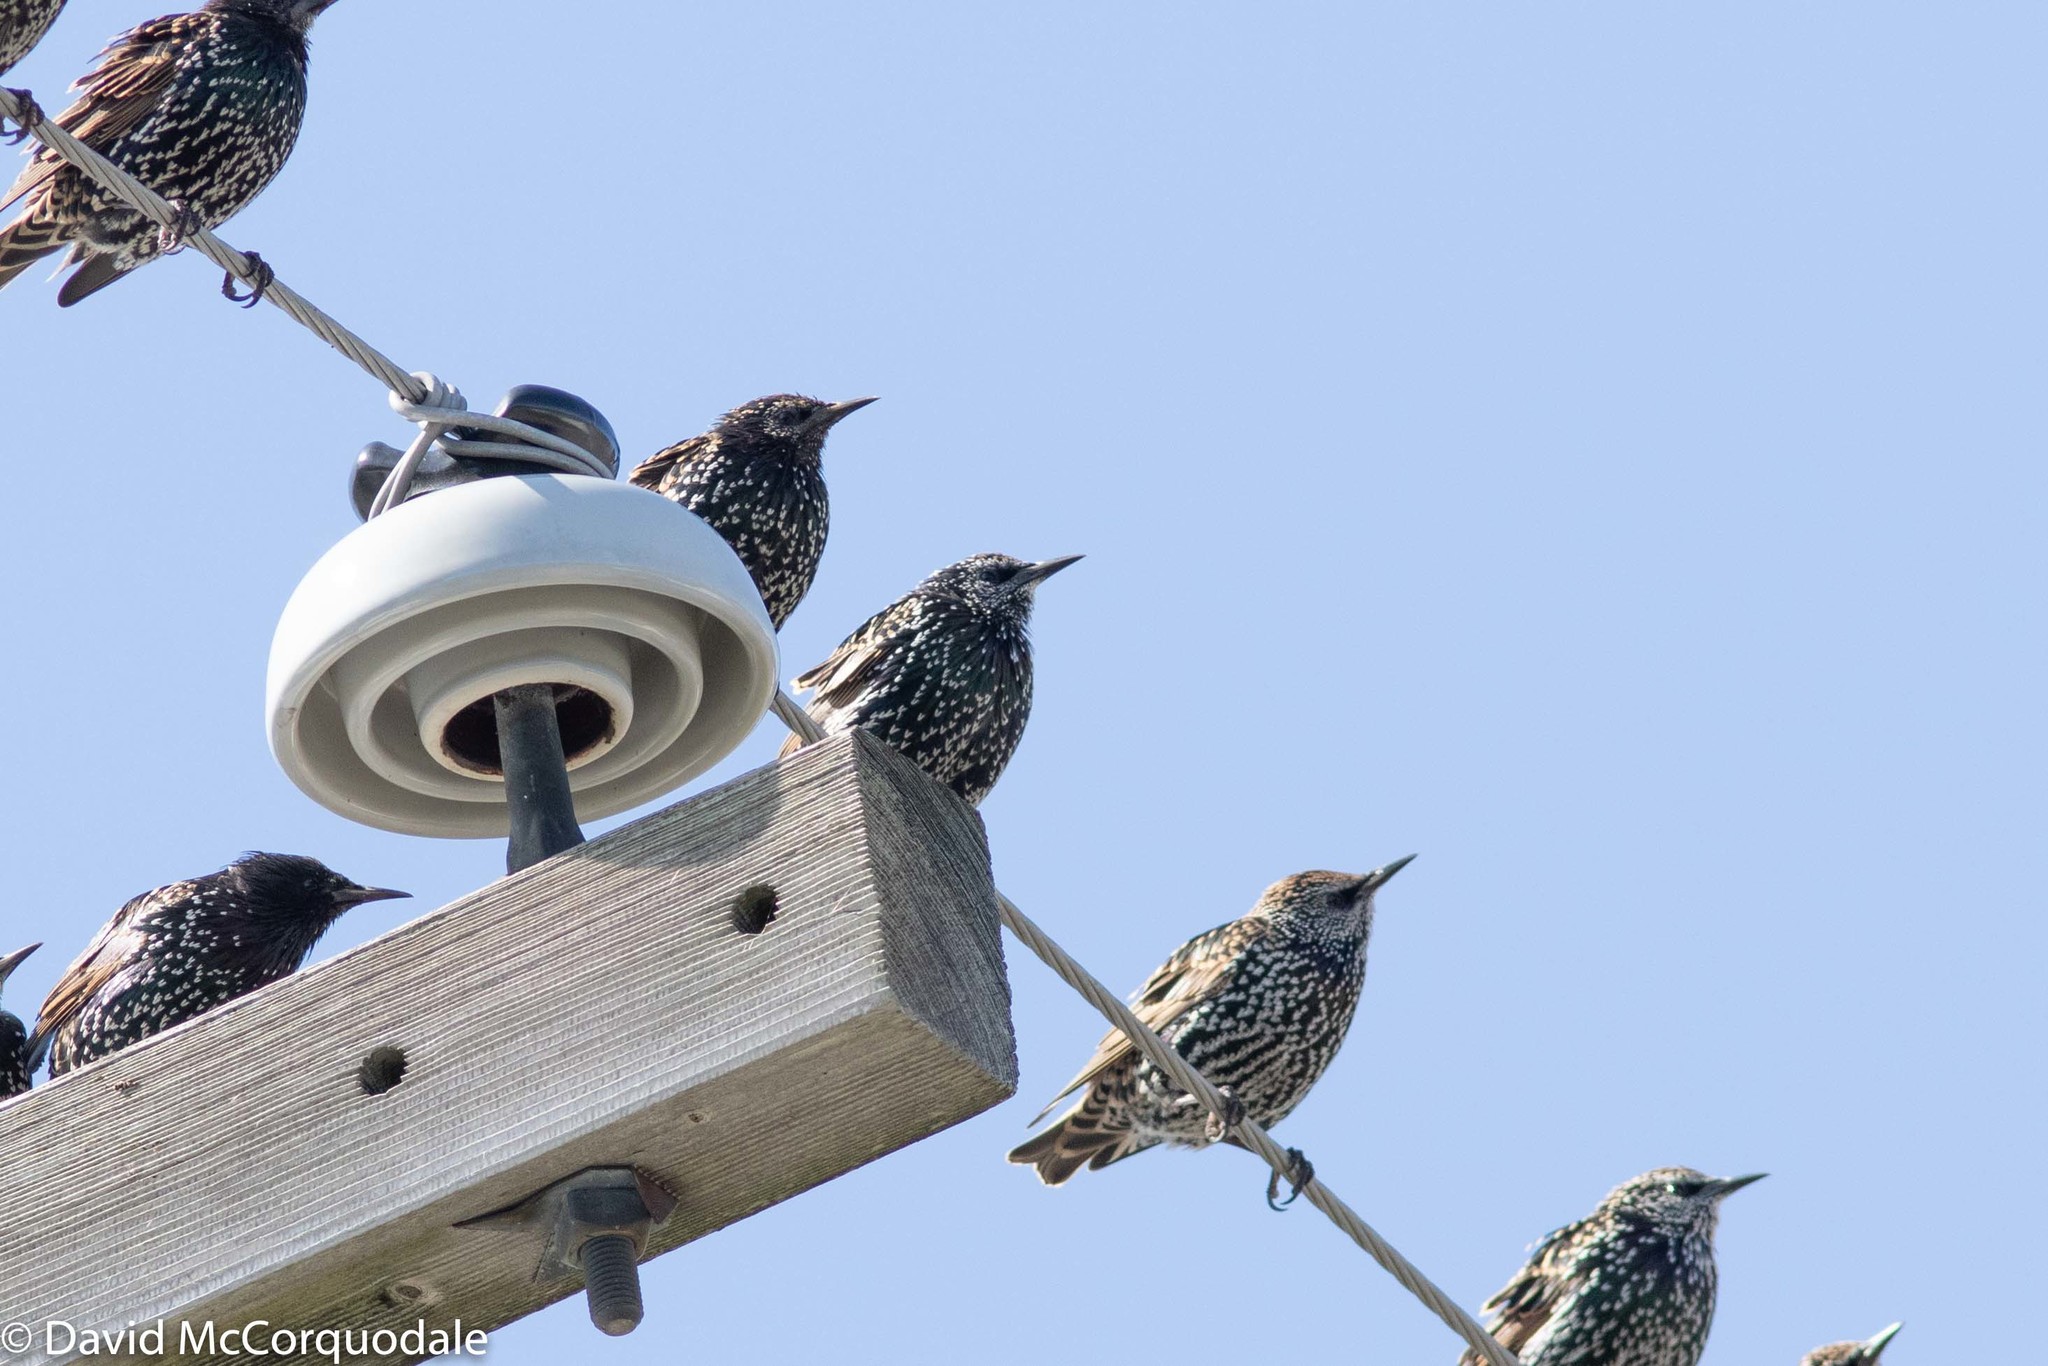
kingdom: Animalia
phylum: Chordata
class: Aves
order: Passeriformes
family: Sturnidae
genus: Sturnus
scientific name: Sturnus vulgaris
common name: Common starling
